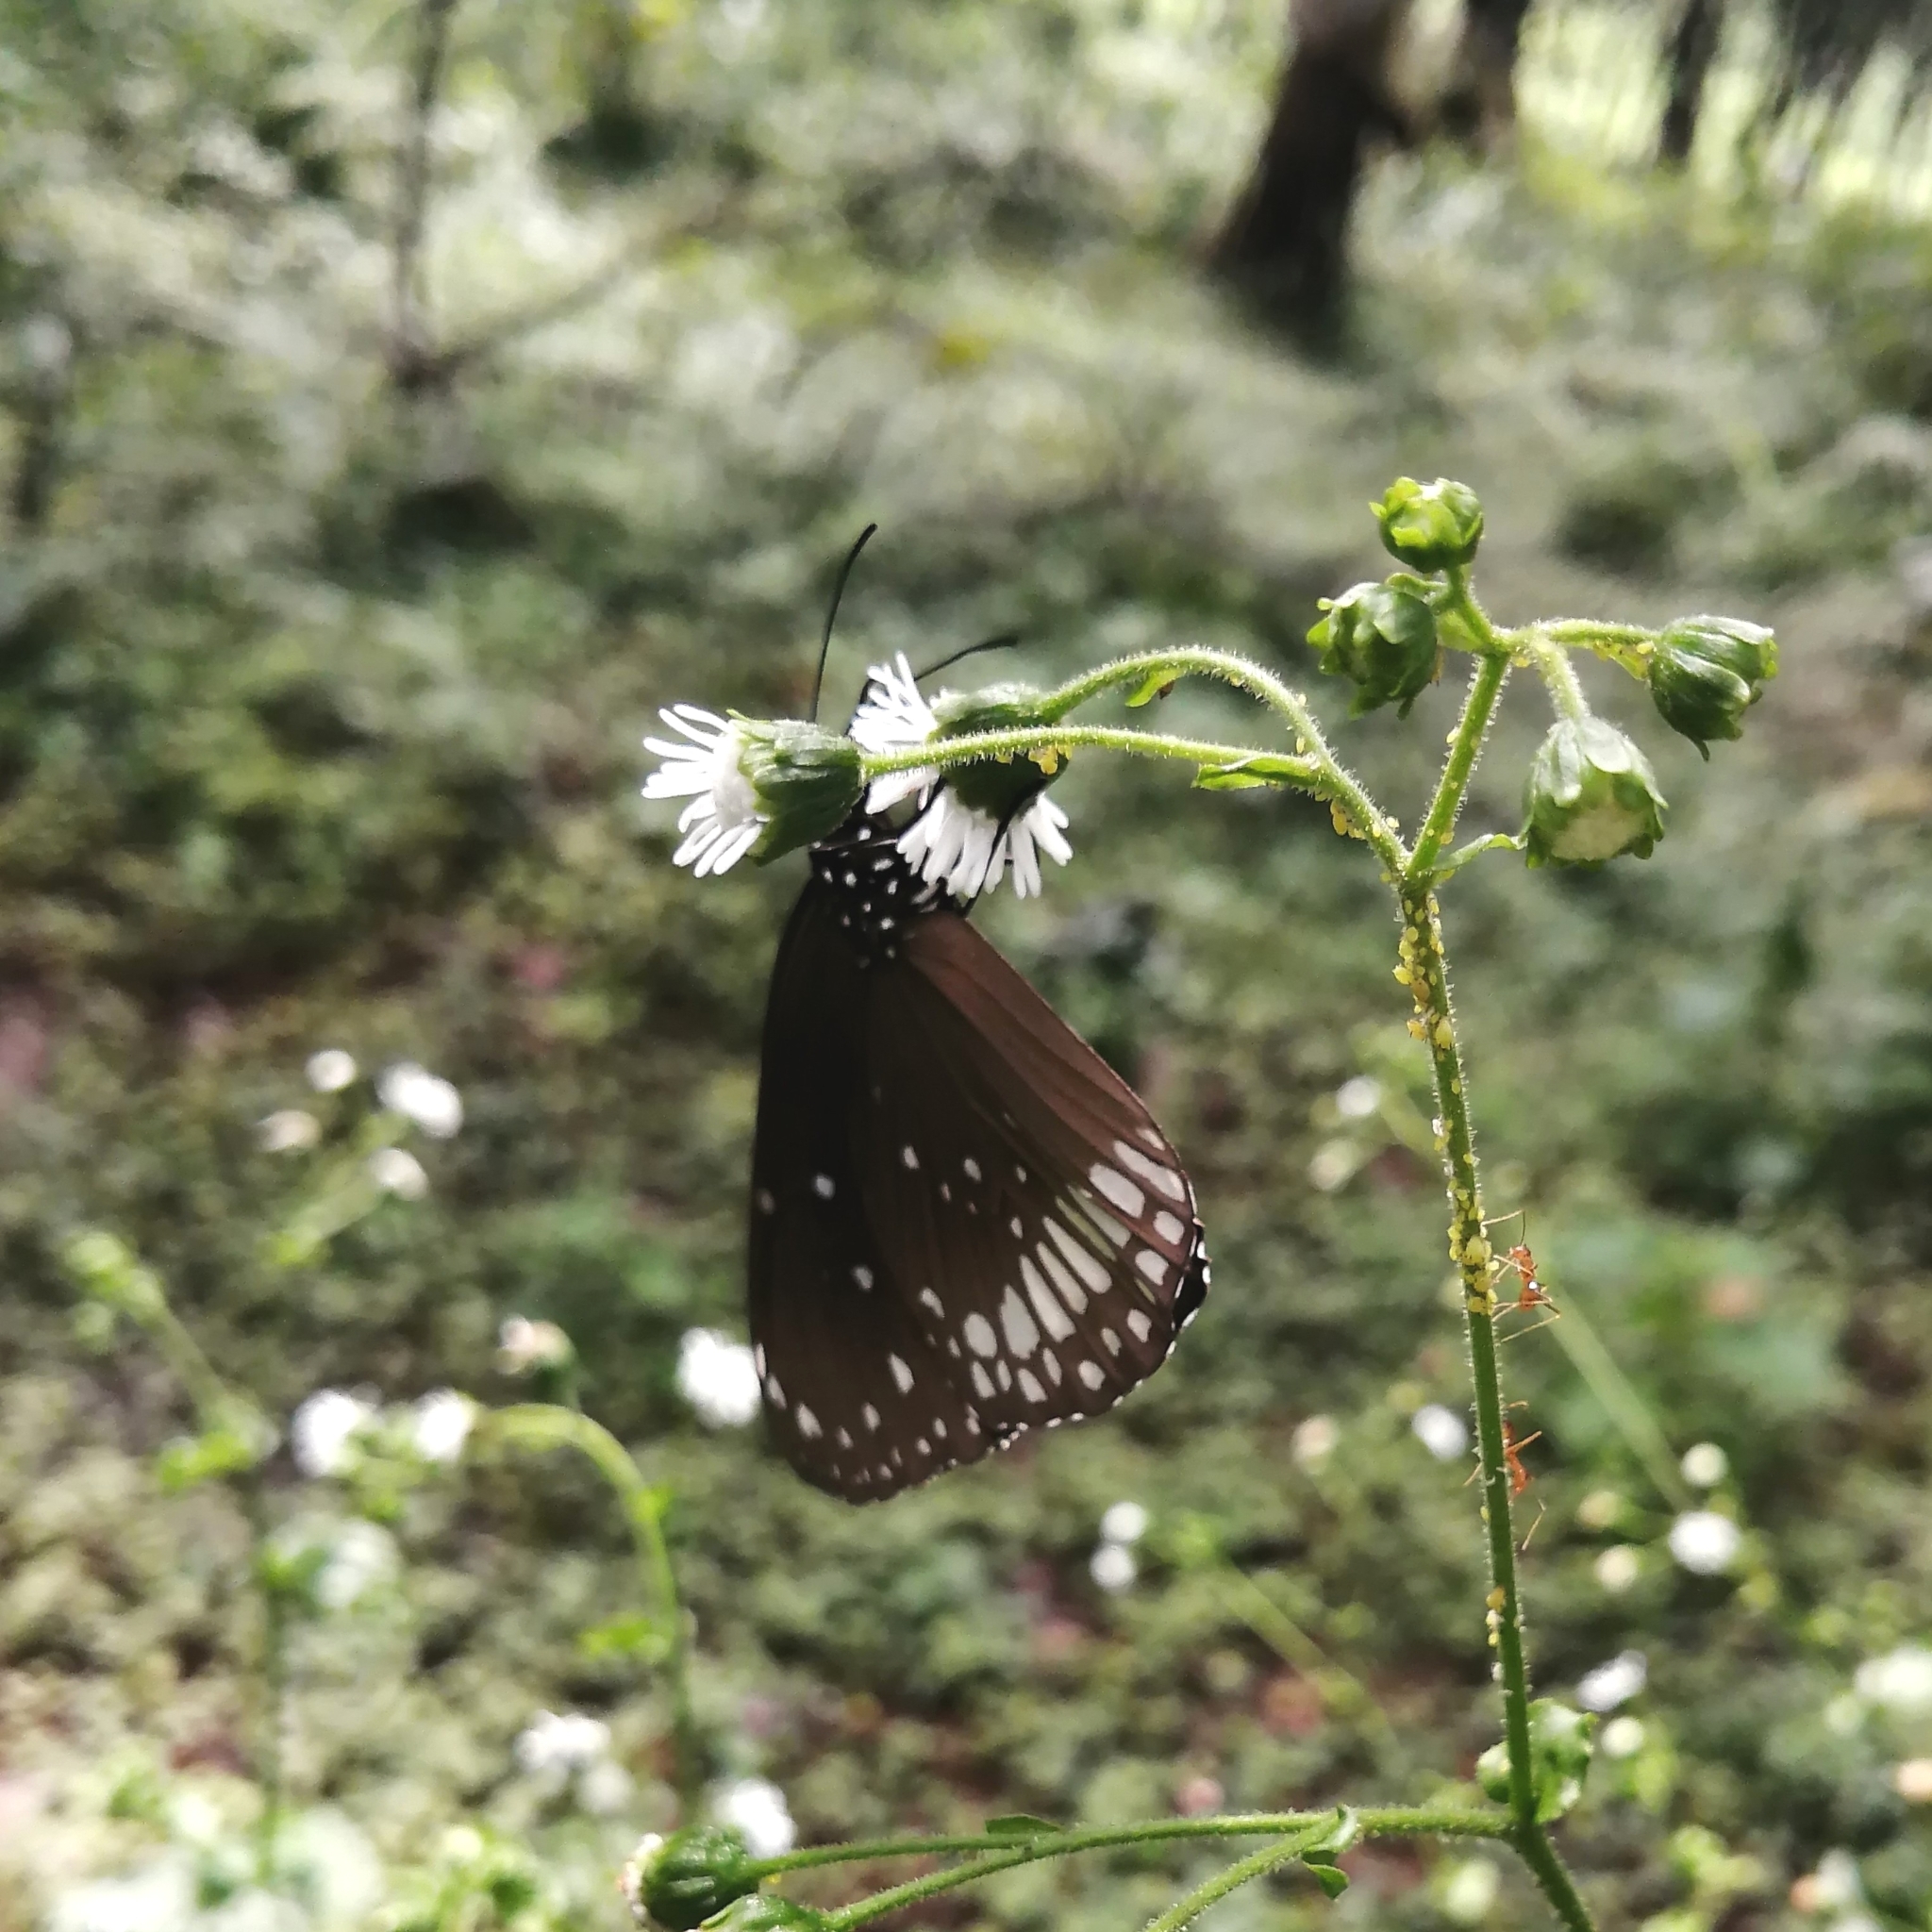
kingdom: Animalia
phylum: Arthropoda
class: Insecta
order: Lepidoptera
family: Nymphalidae
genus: Euploea
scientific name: Euploea core
